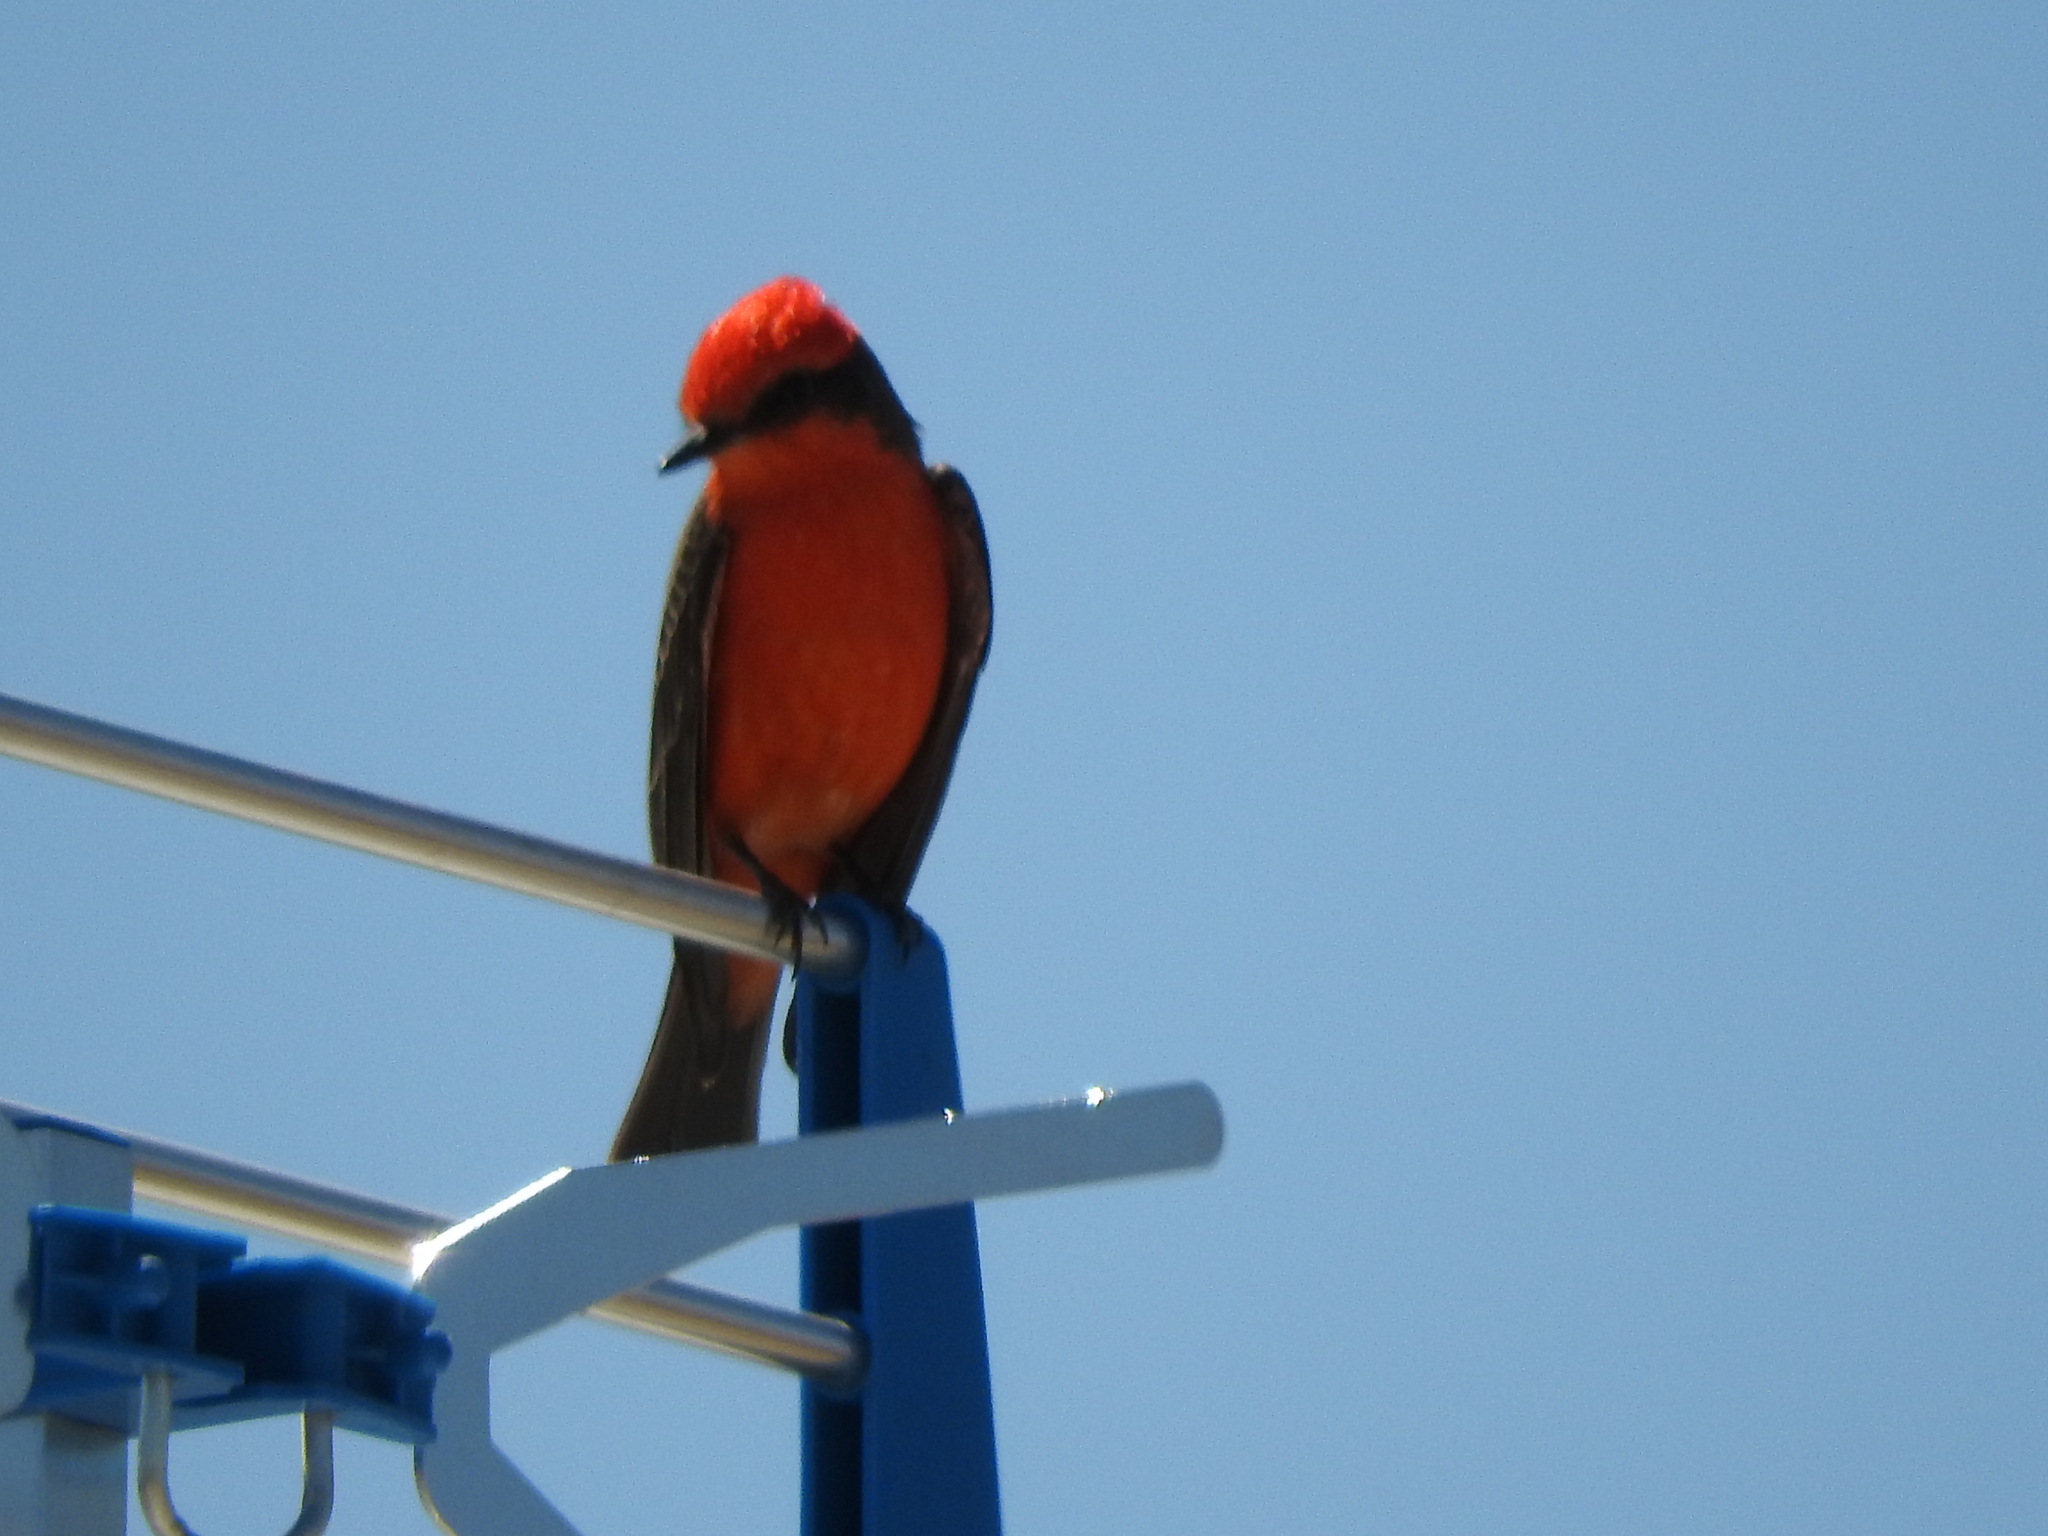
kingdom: Animalia
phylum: Chordata
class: Aves
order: Passeriformes
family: Tyrannidae
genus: Pyrocephalus
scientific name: Pyrocephalus rubinus
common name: Vermilion flycatcher
